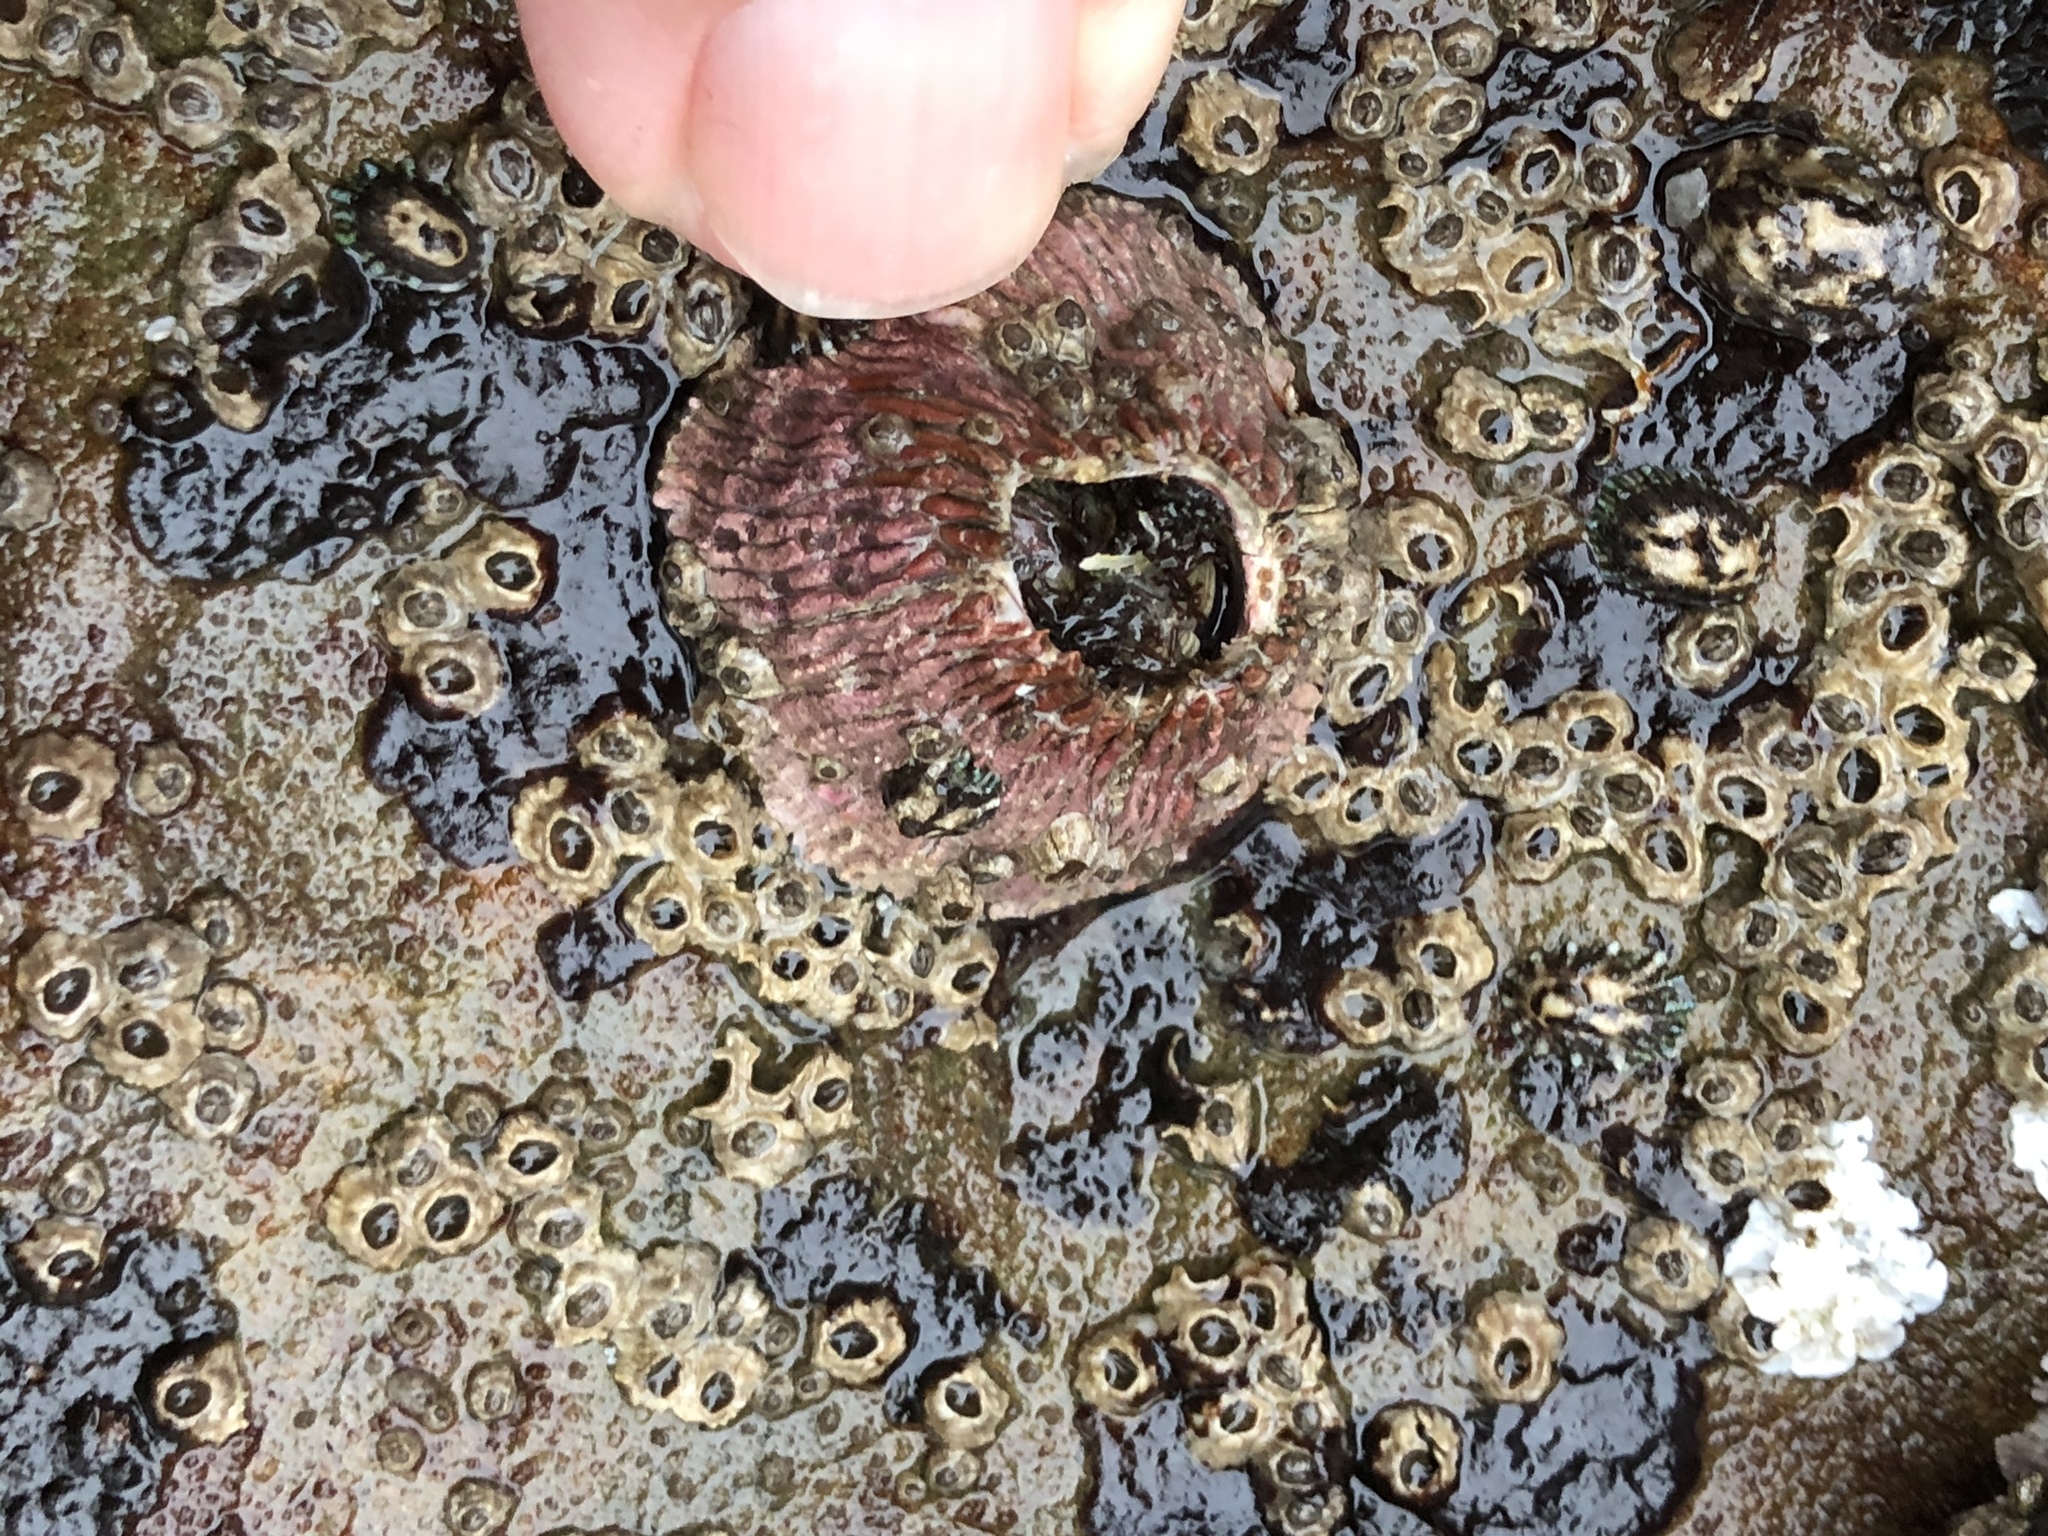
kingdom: Animalia
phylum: Arthropoda
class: Maxillopoda
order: Sessilia
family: Tetraclitidae
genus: Tetraclita
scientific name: Tetraclita rubescens
